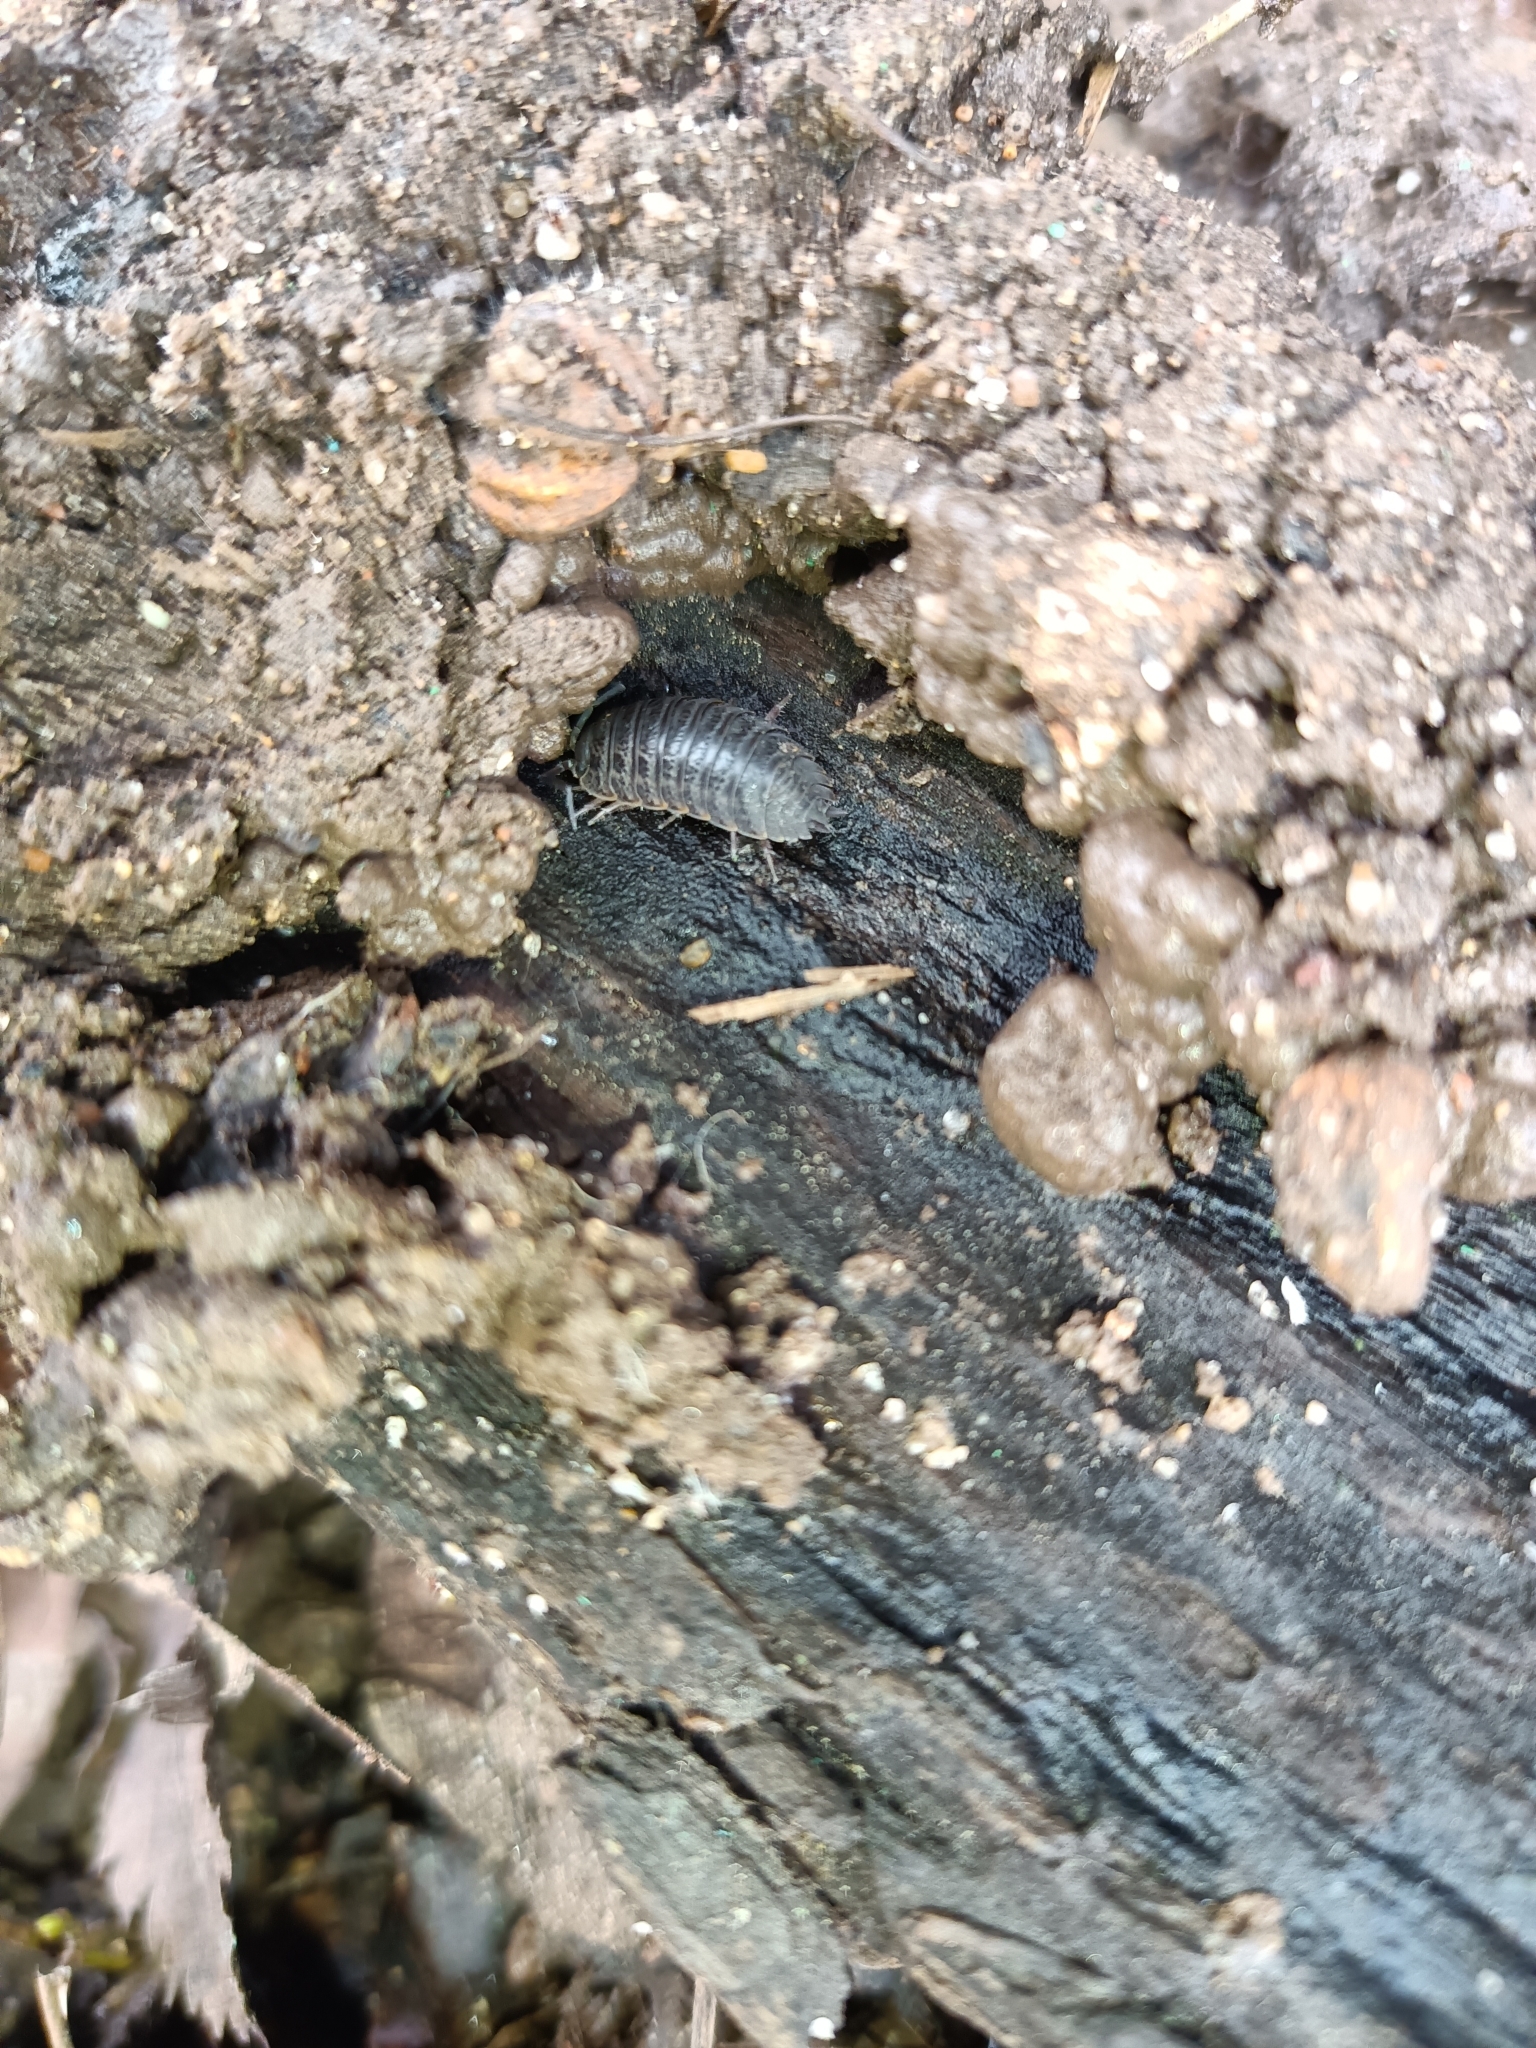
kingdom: Animalia
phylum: Arthropoda
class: Malacostraca
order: Isopoda
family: Trachelipodidae
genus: Trachelipus
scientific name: Trachelipus rathkii
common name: Isopod
